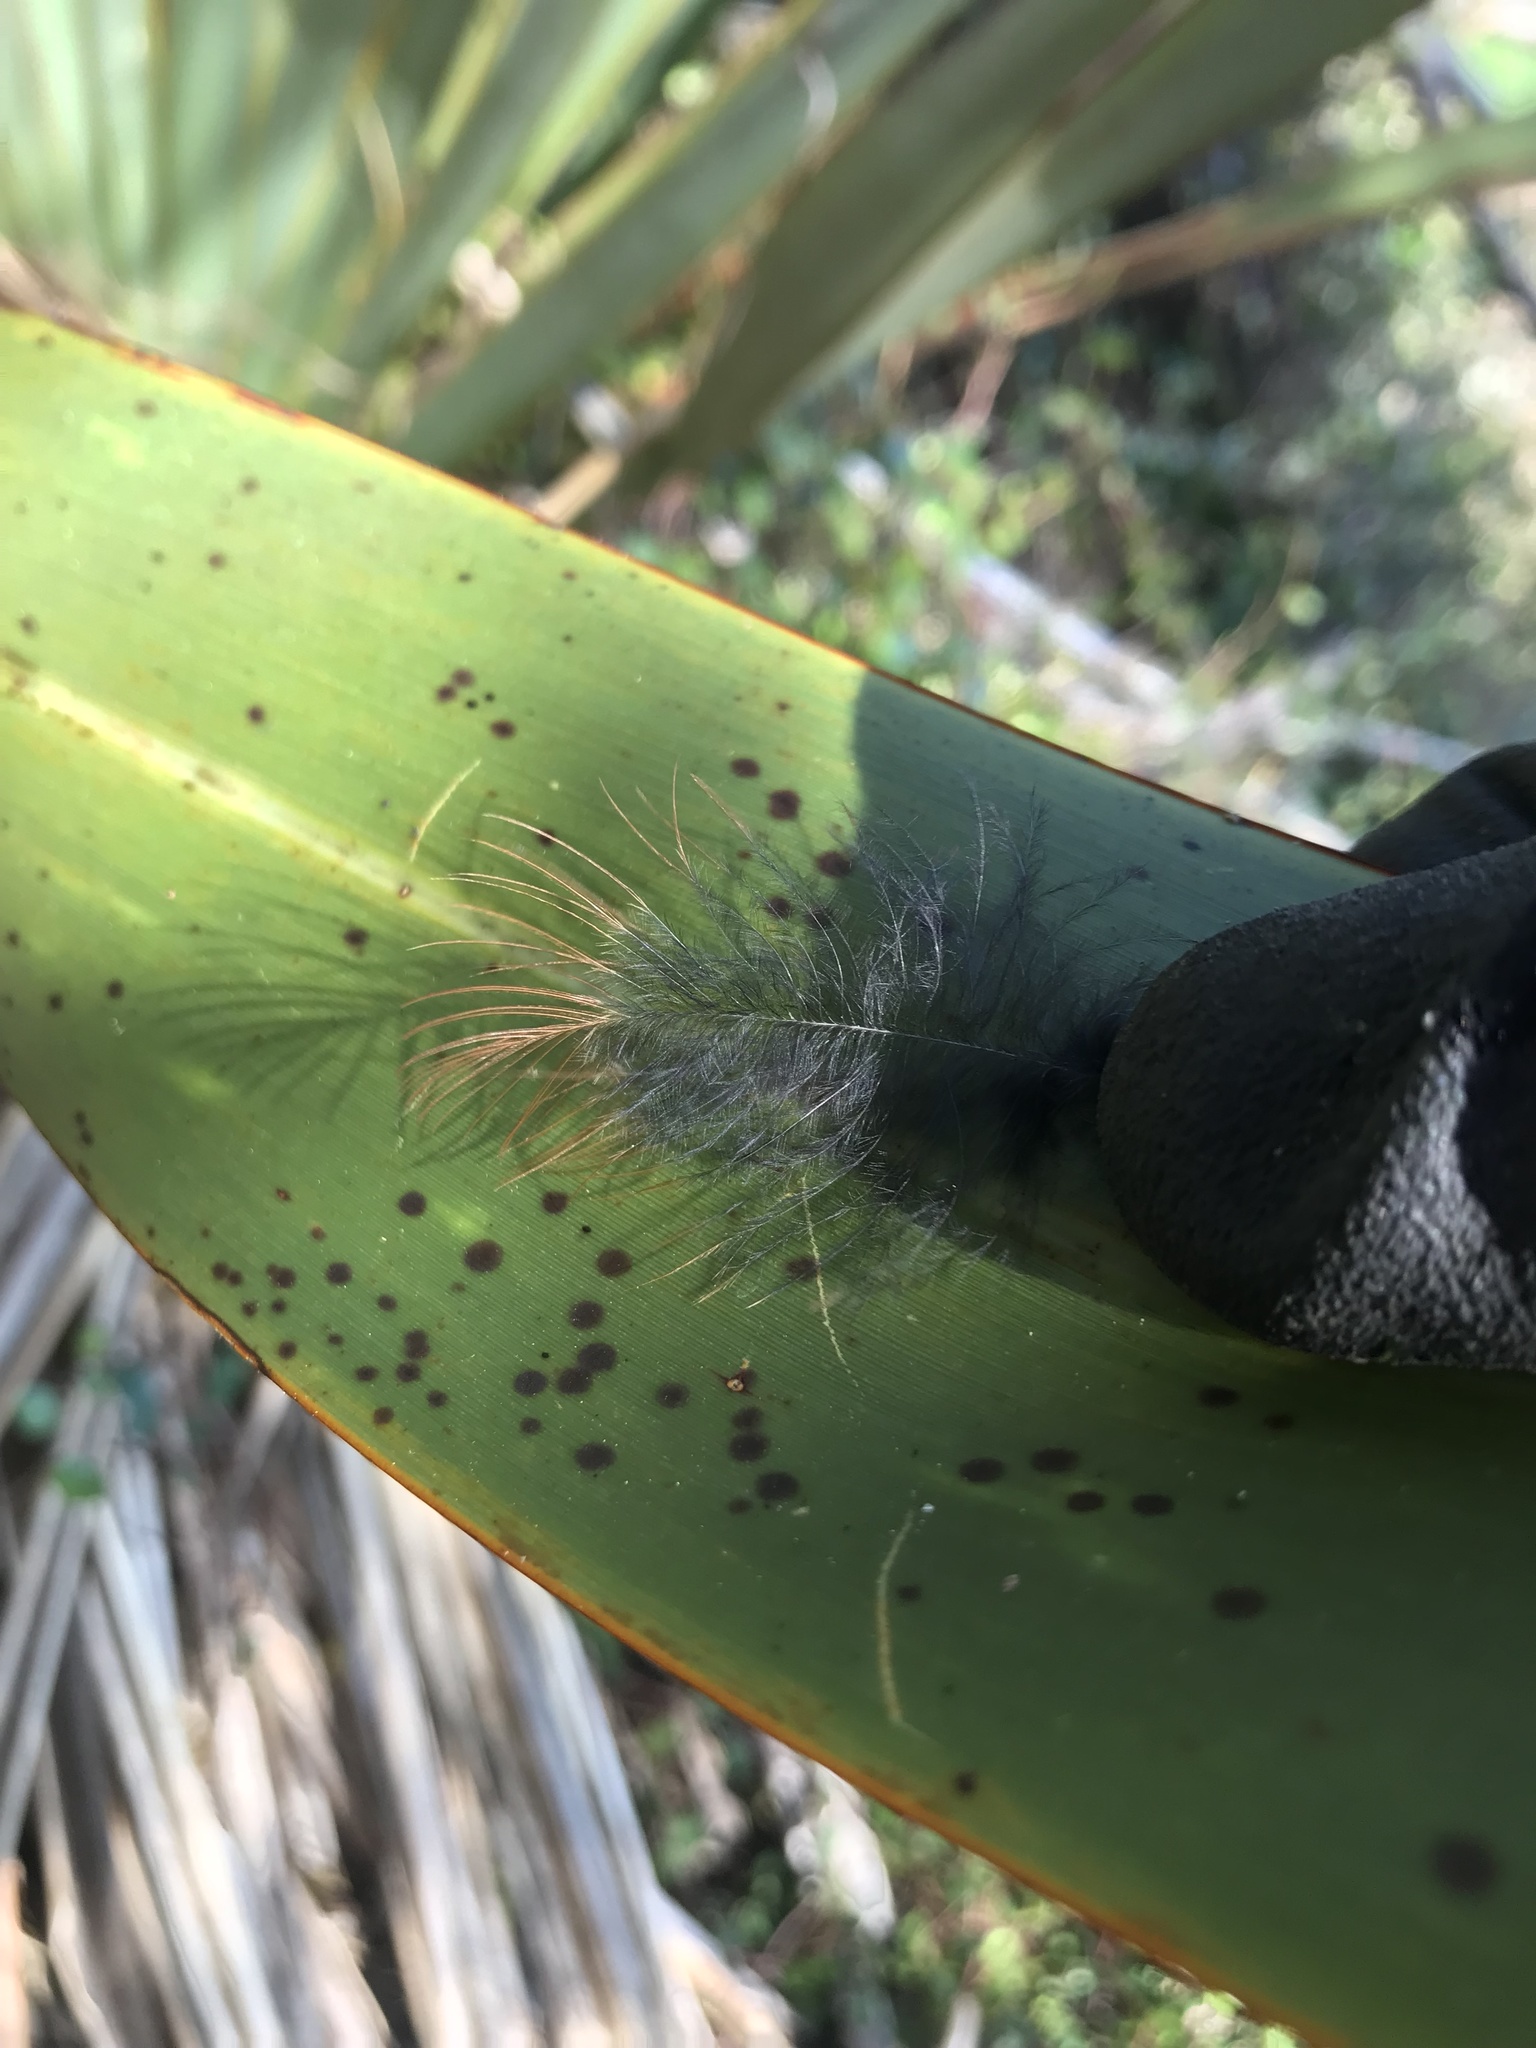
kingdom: Animalia
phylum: Chordata
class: Aves
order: Passeriformes
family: Callaeatidae
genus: Philesturnus
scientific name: Philesturnus carunculatus
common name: South island saddleback
